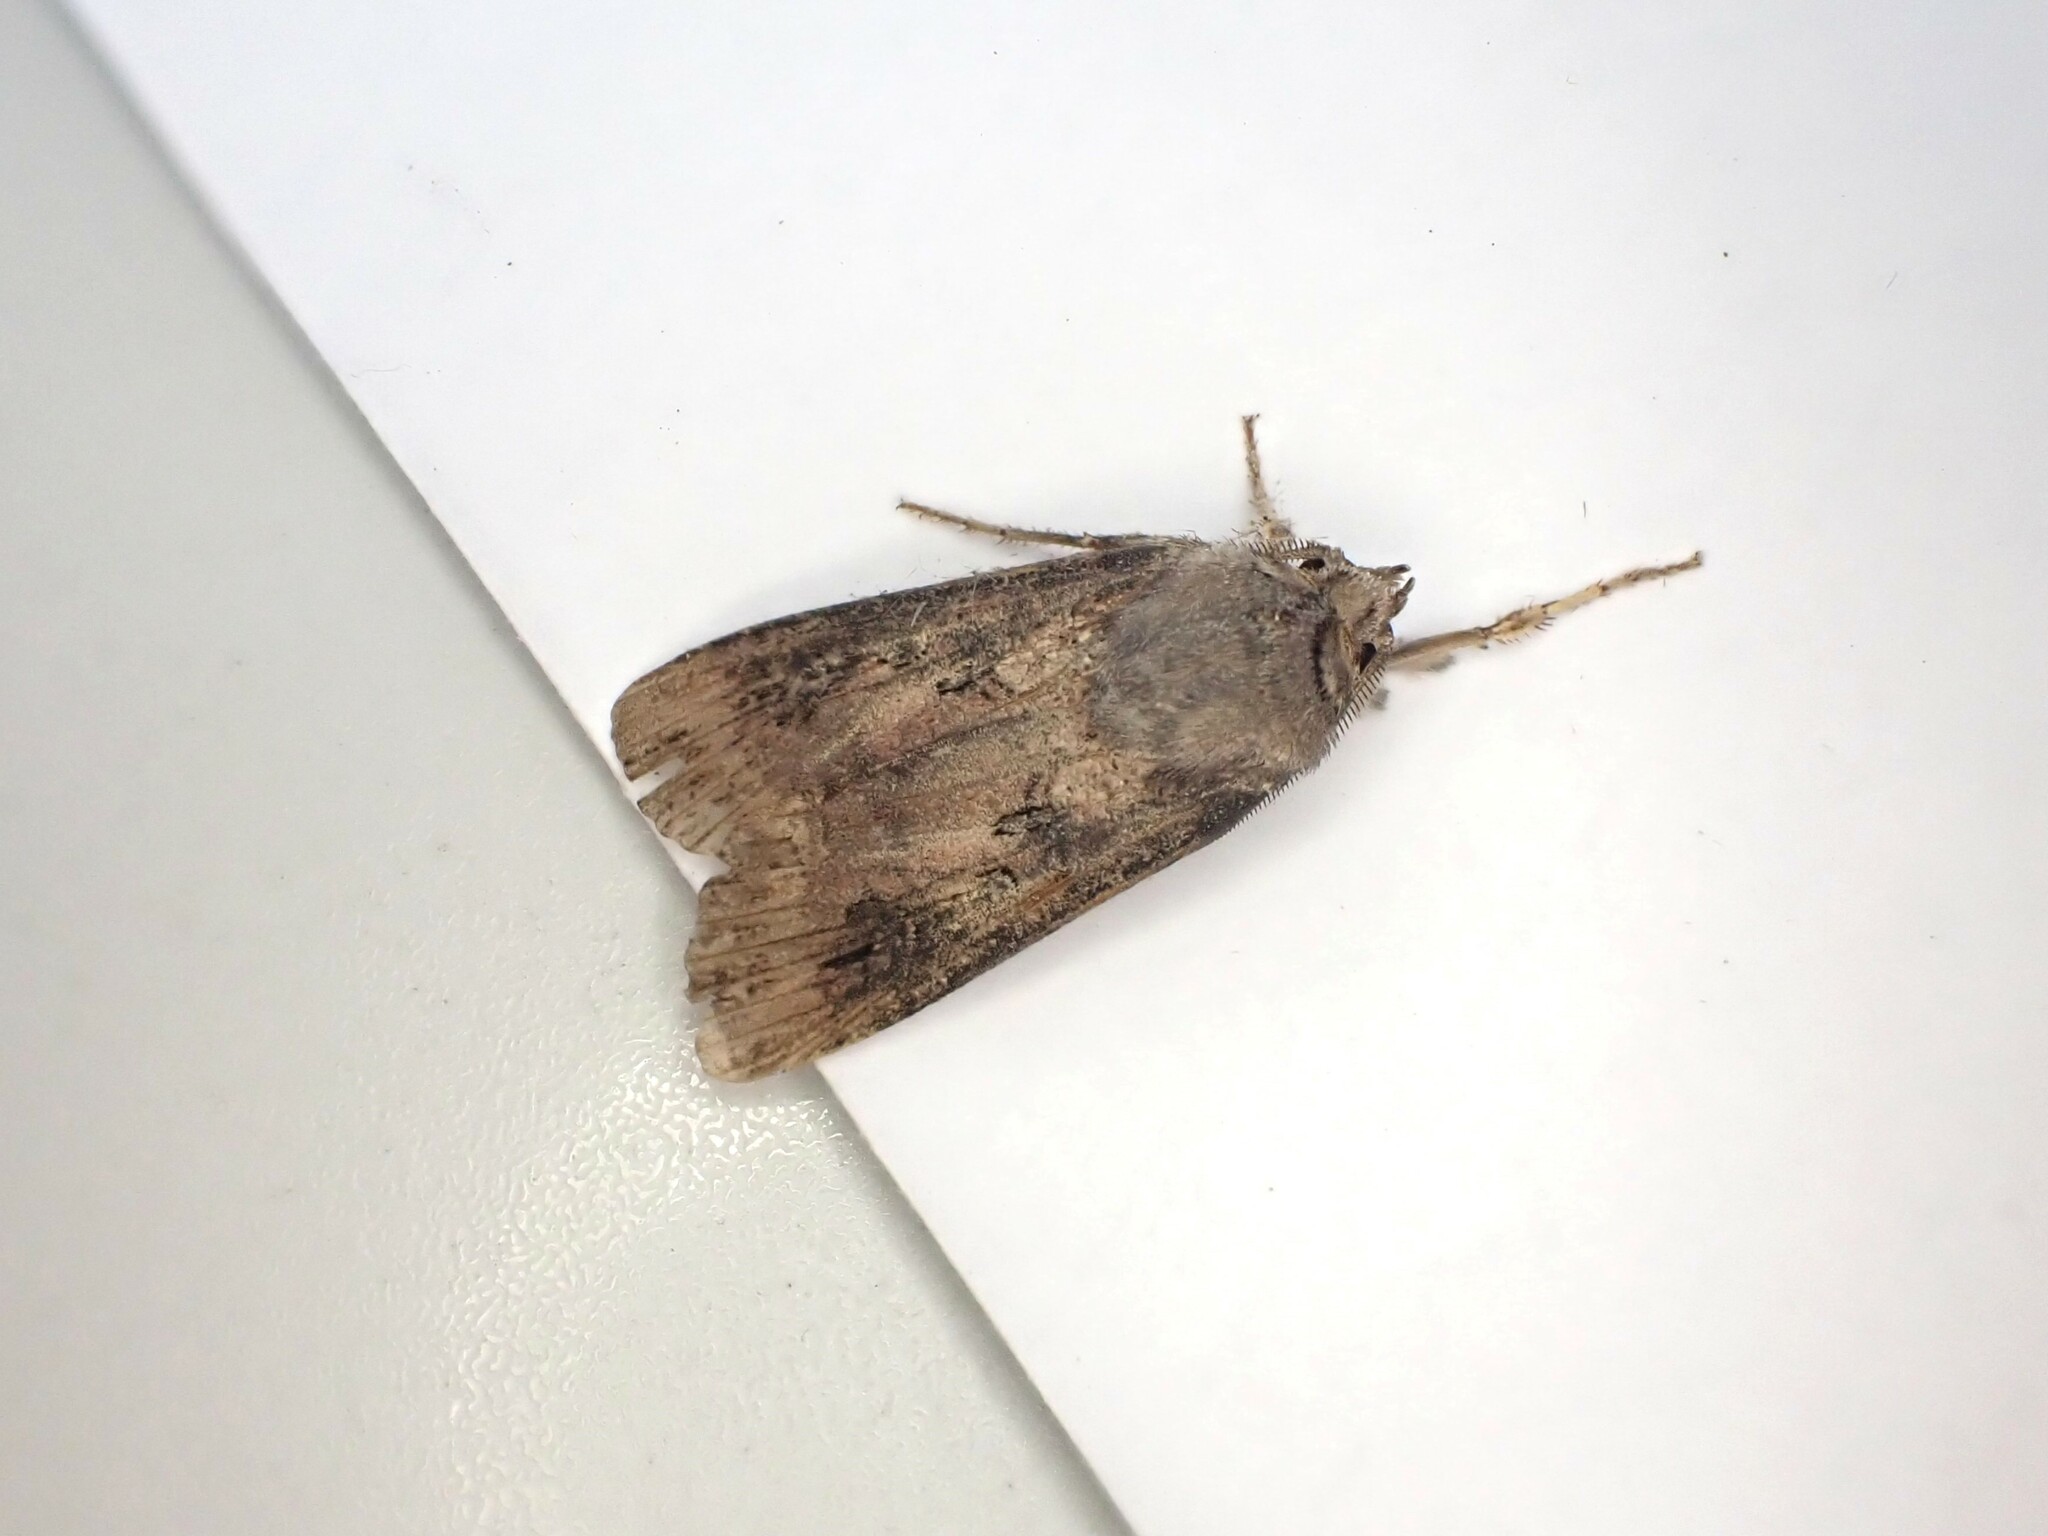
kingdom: Animalia
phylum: Arthropoda
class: Insecta
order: Lepidoptera
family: Noctuidae
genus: Agrotis
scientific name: Agrotis ipsilon
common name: Dark sword-grass
